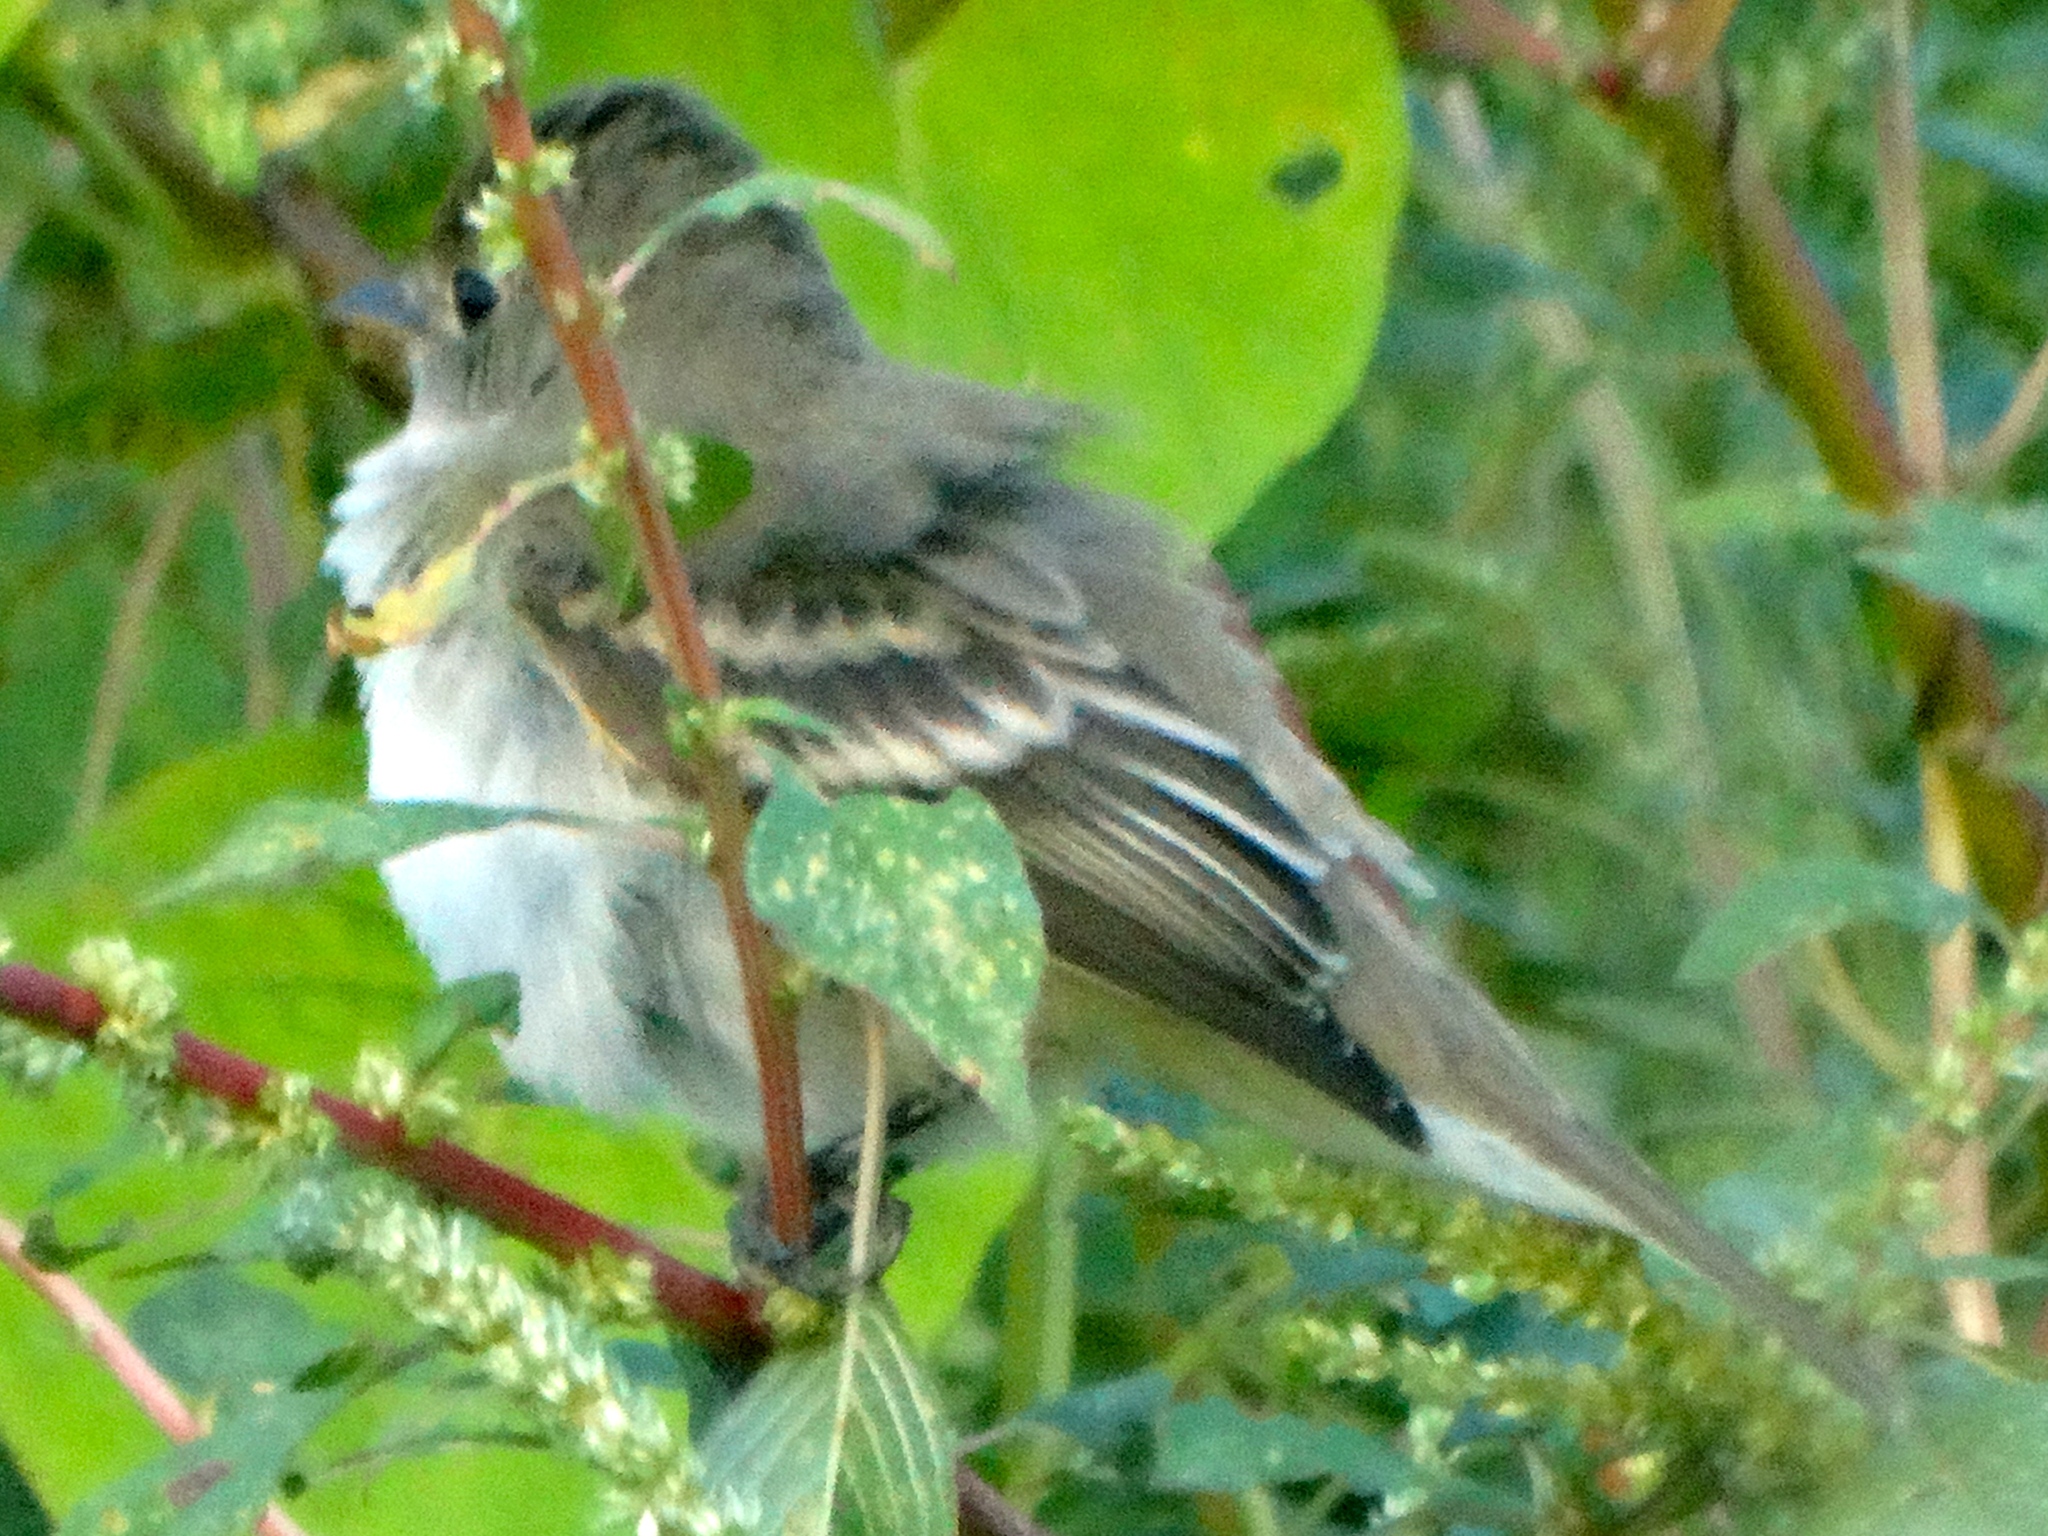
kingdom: Animalia
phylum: Chordata
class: Aves
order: Passeriformes
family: Tyrannidae
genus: Empidonax
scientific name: Empidonax
